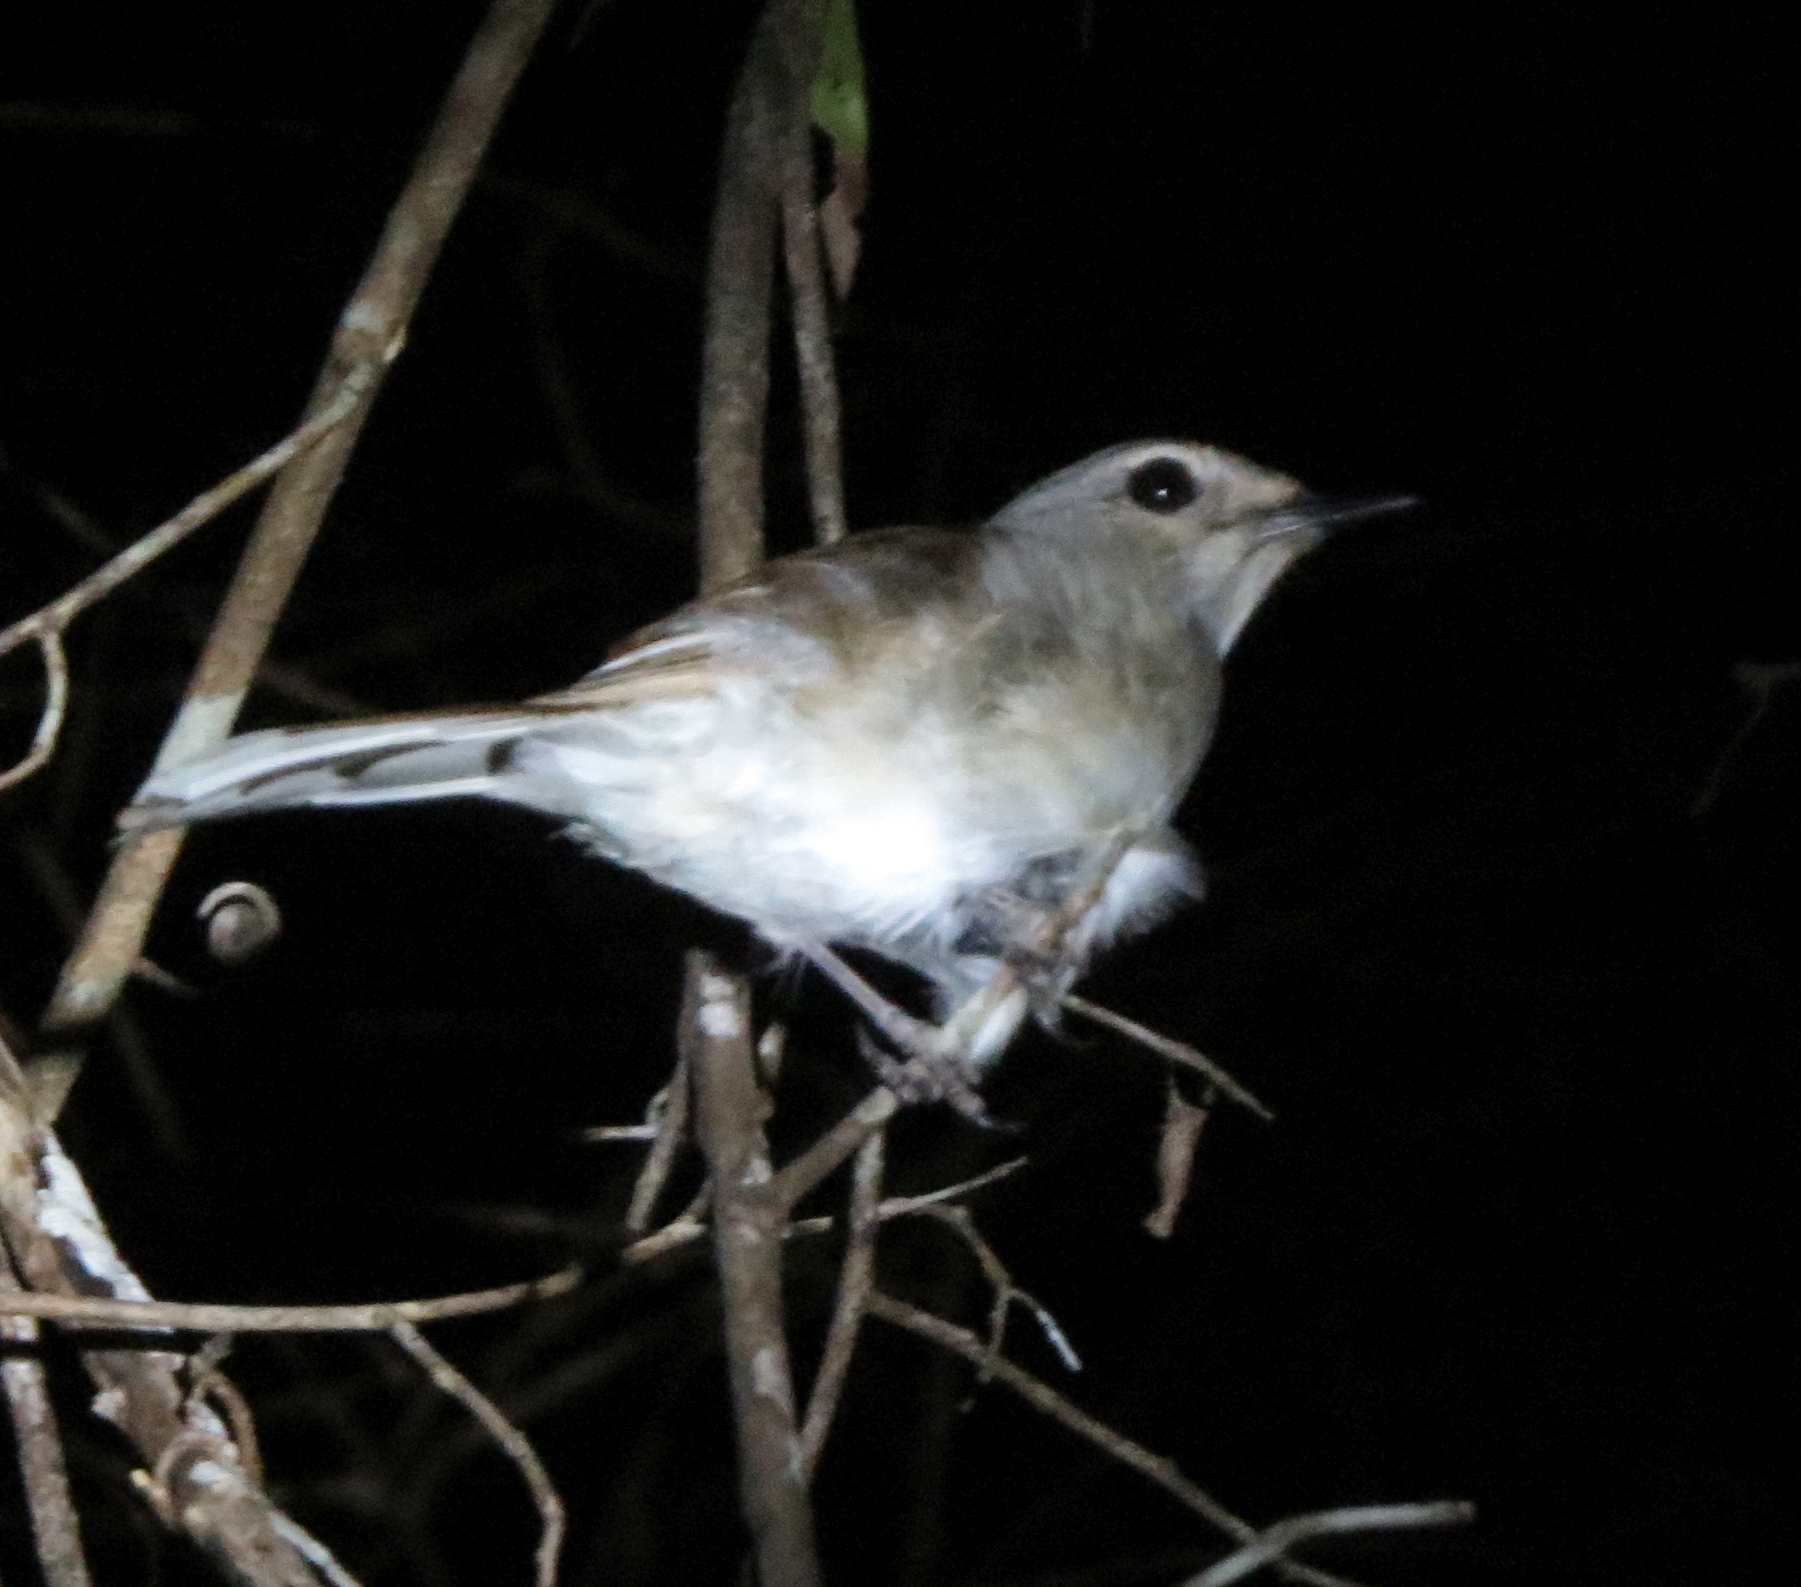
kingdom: Animalia
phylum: Chordata
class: Aves
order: Passeriformes
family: Muscicapidae
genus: Copsychus
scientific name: Copsychus albospecularis
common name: Madagascar magpie-robin
